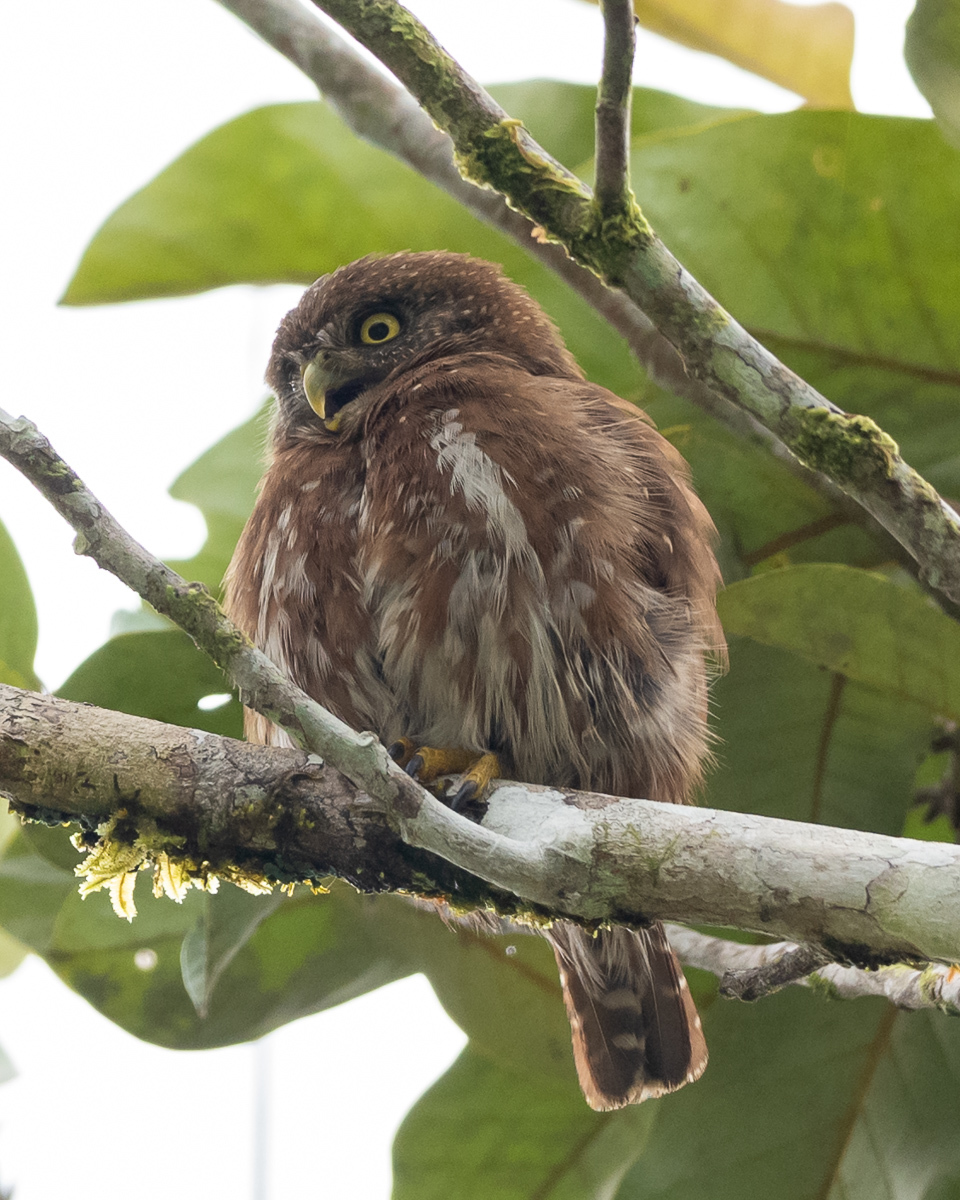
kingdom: Animalia
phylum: Chordata
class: Aves
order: Strigiformes
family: Strigidae
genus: Glaucidium
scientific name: Glaucidium brasilianum
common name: Ferruginous pygmy-owl
